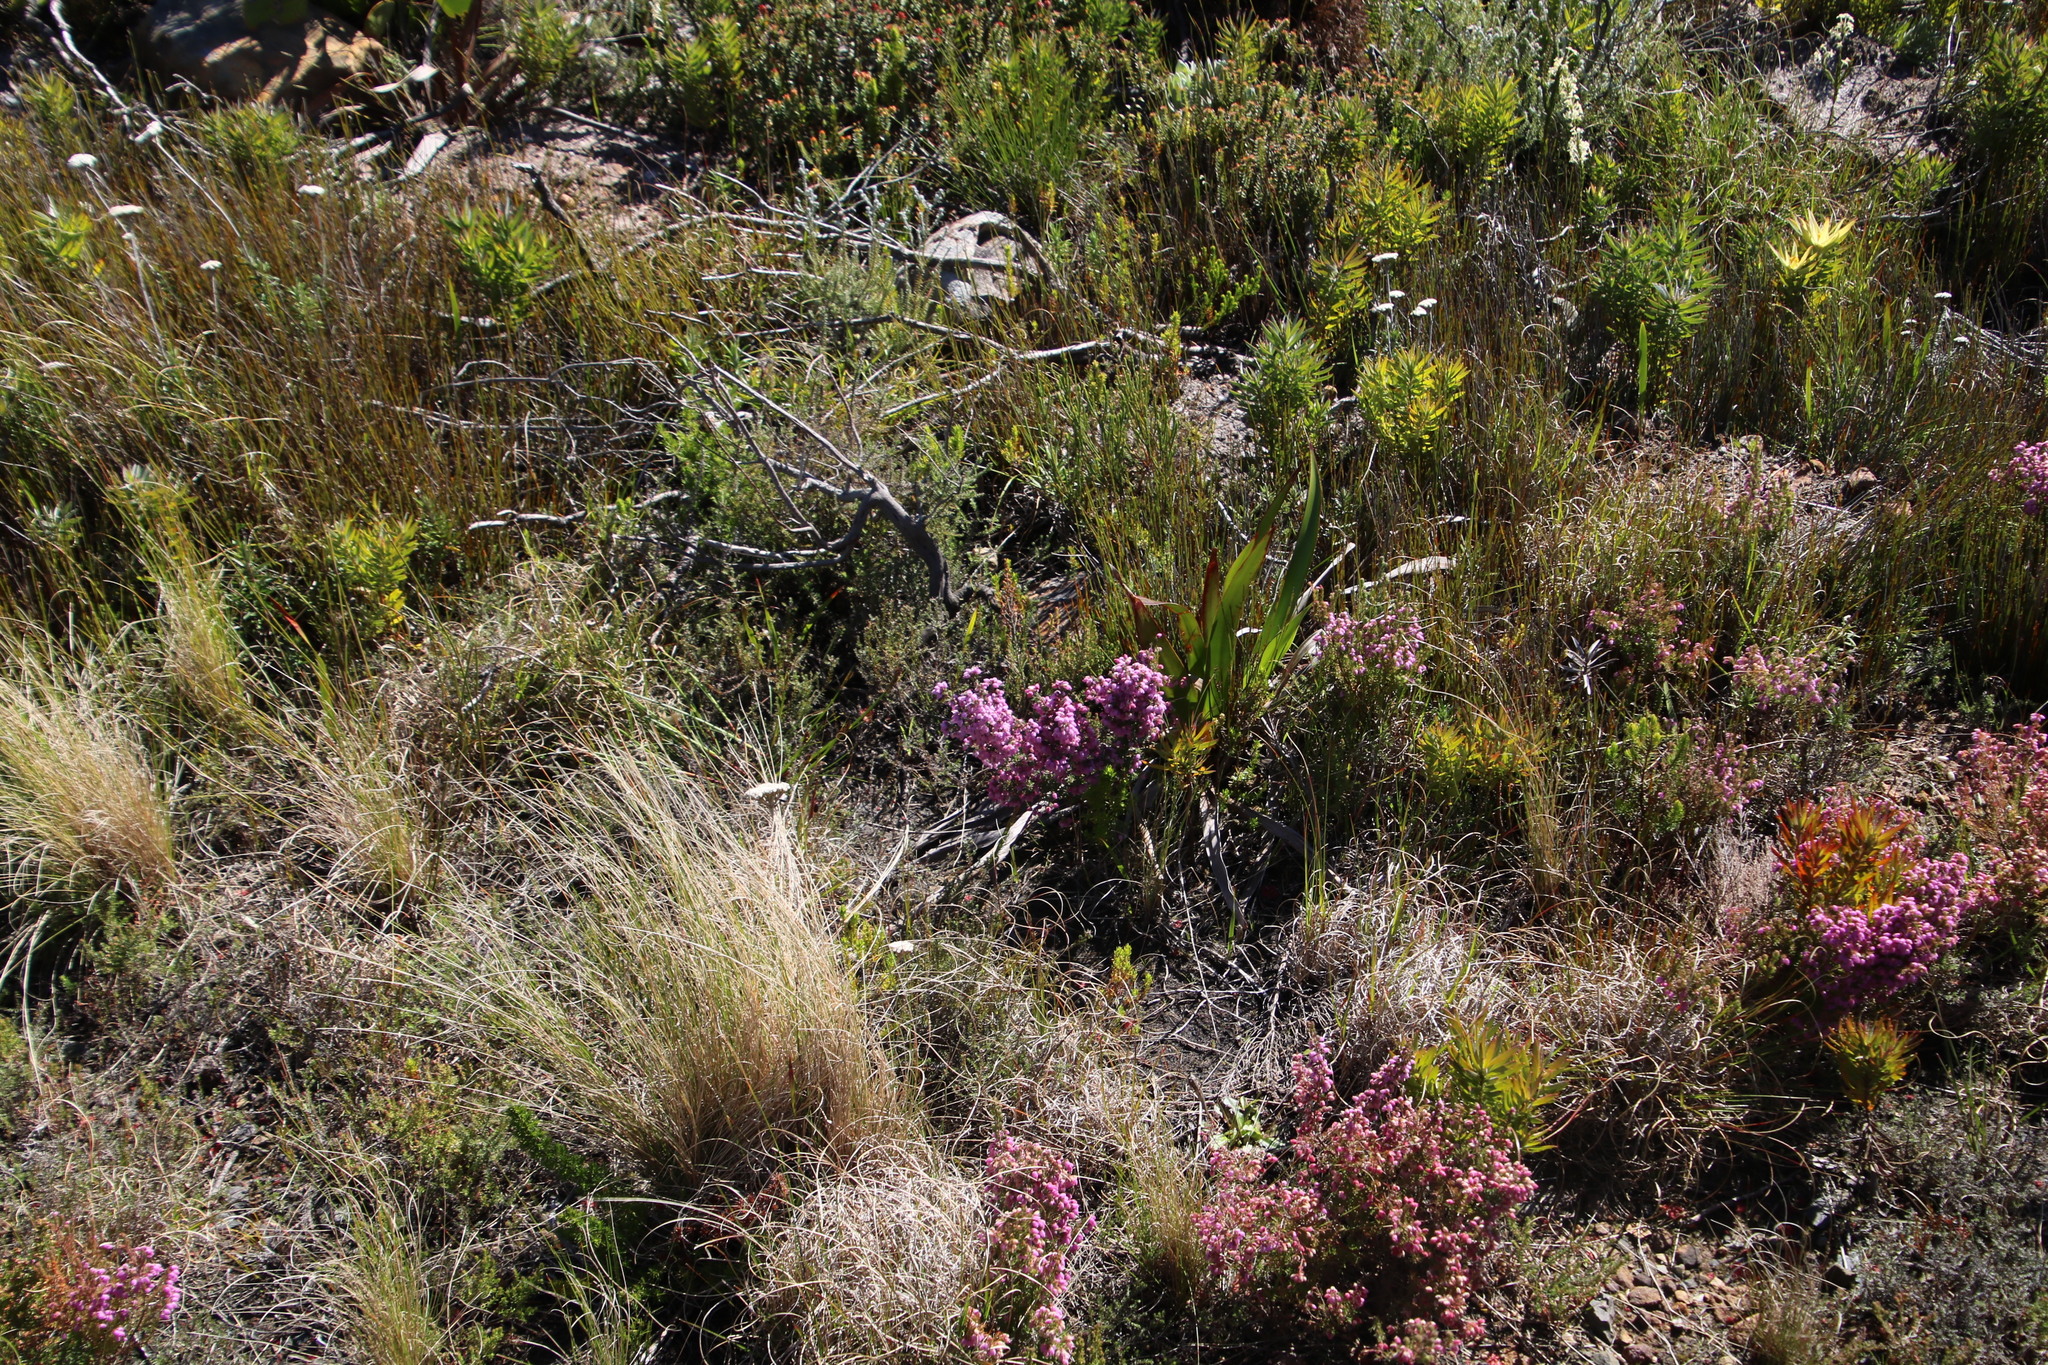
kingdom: Plantae
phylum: Tracheophyta
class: Magnoliopsida
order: Ericales
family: Ericaceae
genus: Erica
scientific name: Erica hirtiflora
